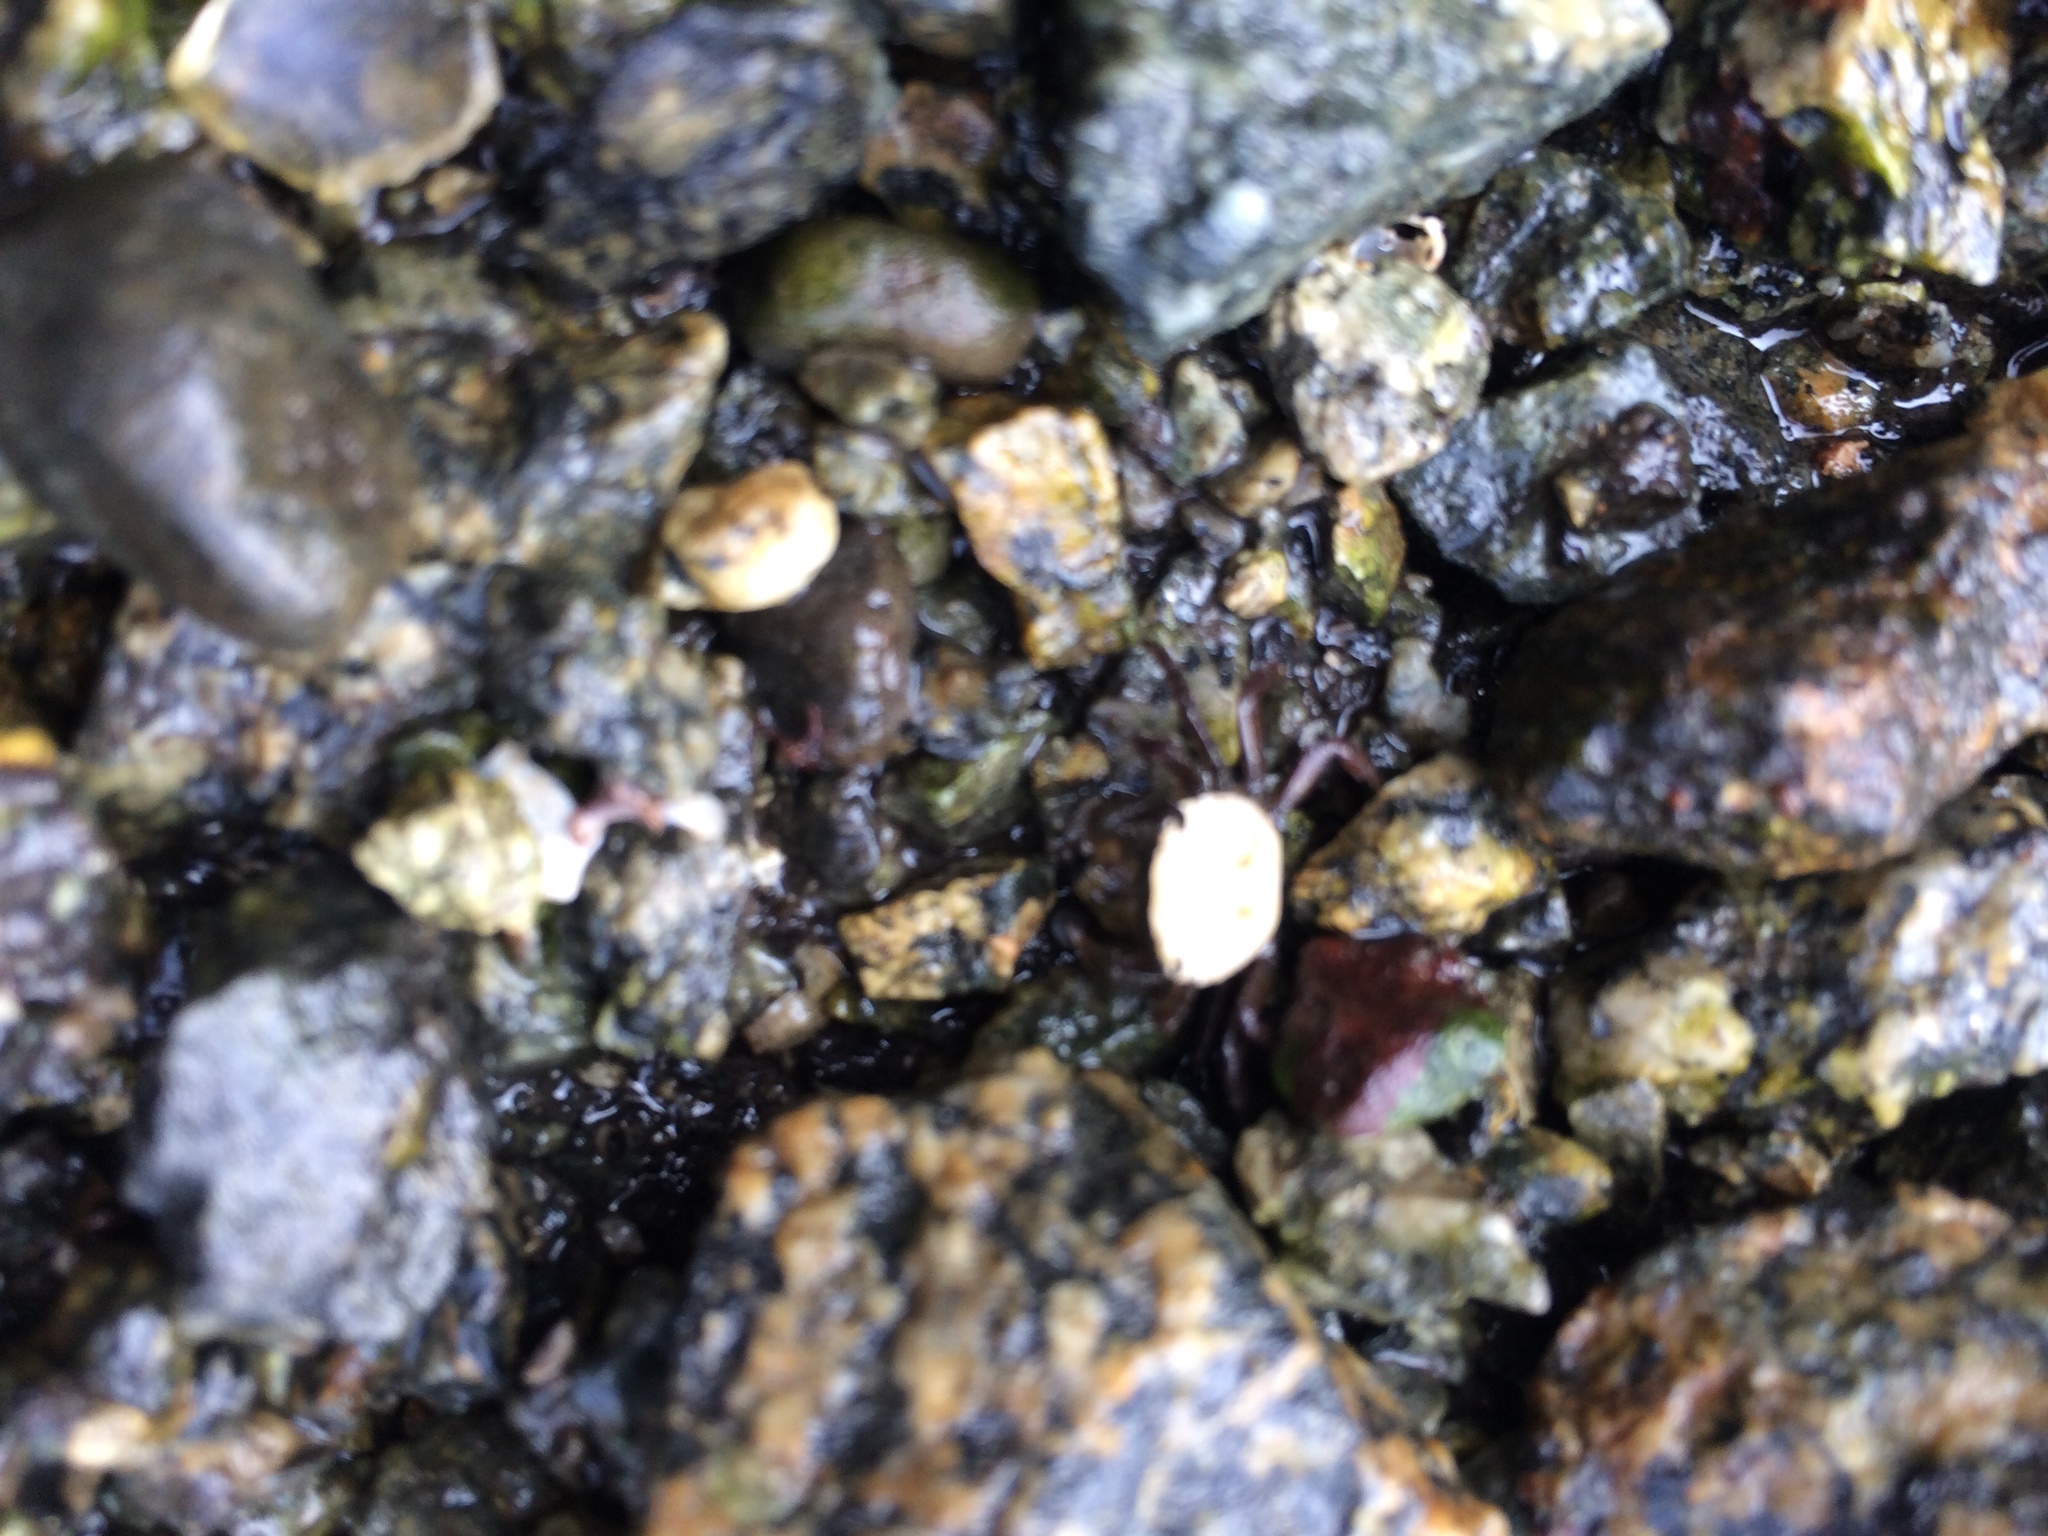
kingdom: Animalia
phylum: Arthropoda
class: Malacostraca
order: Decapoda
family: Varunidae
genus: Hemigrapsus
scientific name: Hemigrapsus
